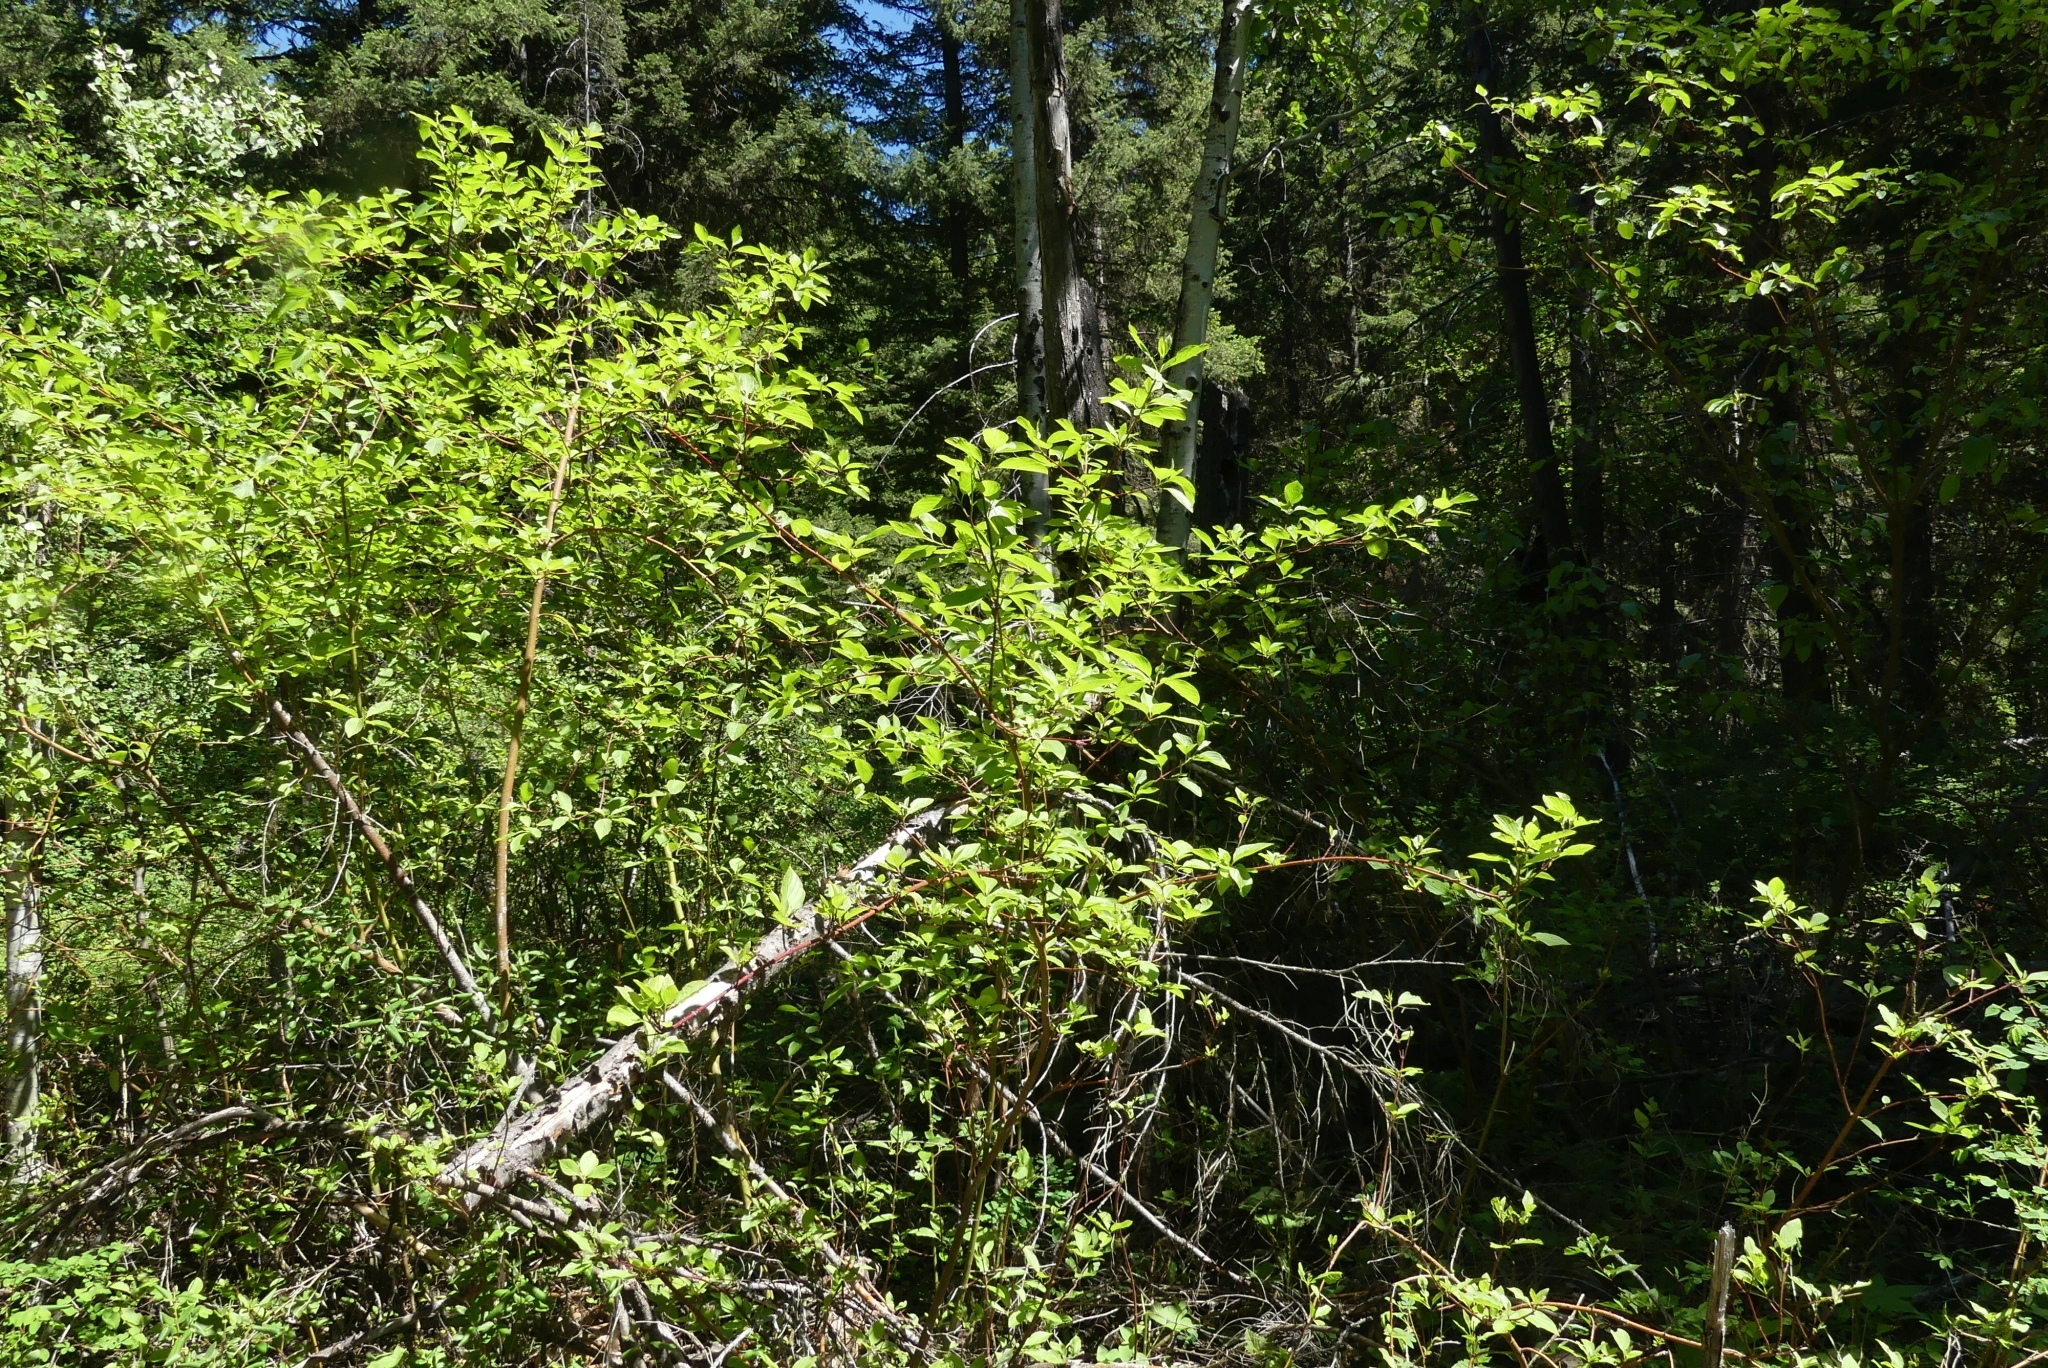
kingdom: Plantae
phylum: Tracheophyta
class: Magnoliopsida
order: Cornales
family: Cornaceae
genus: Cornus
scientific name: Cornus sericea
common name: Red-osier dogwood
